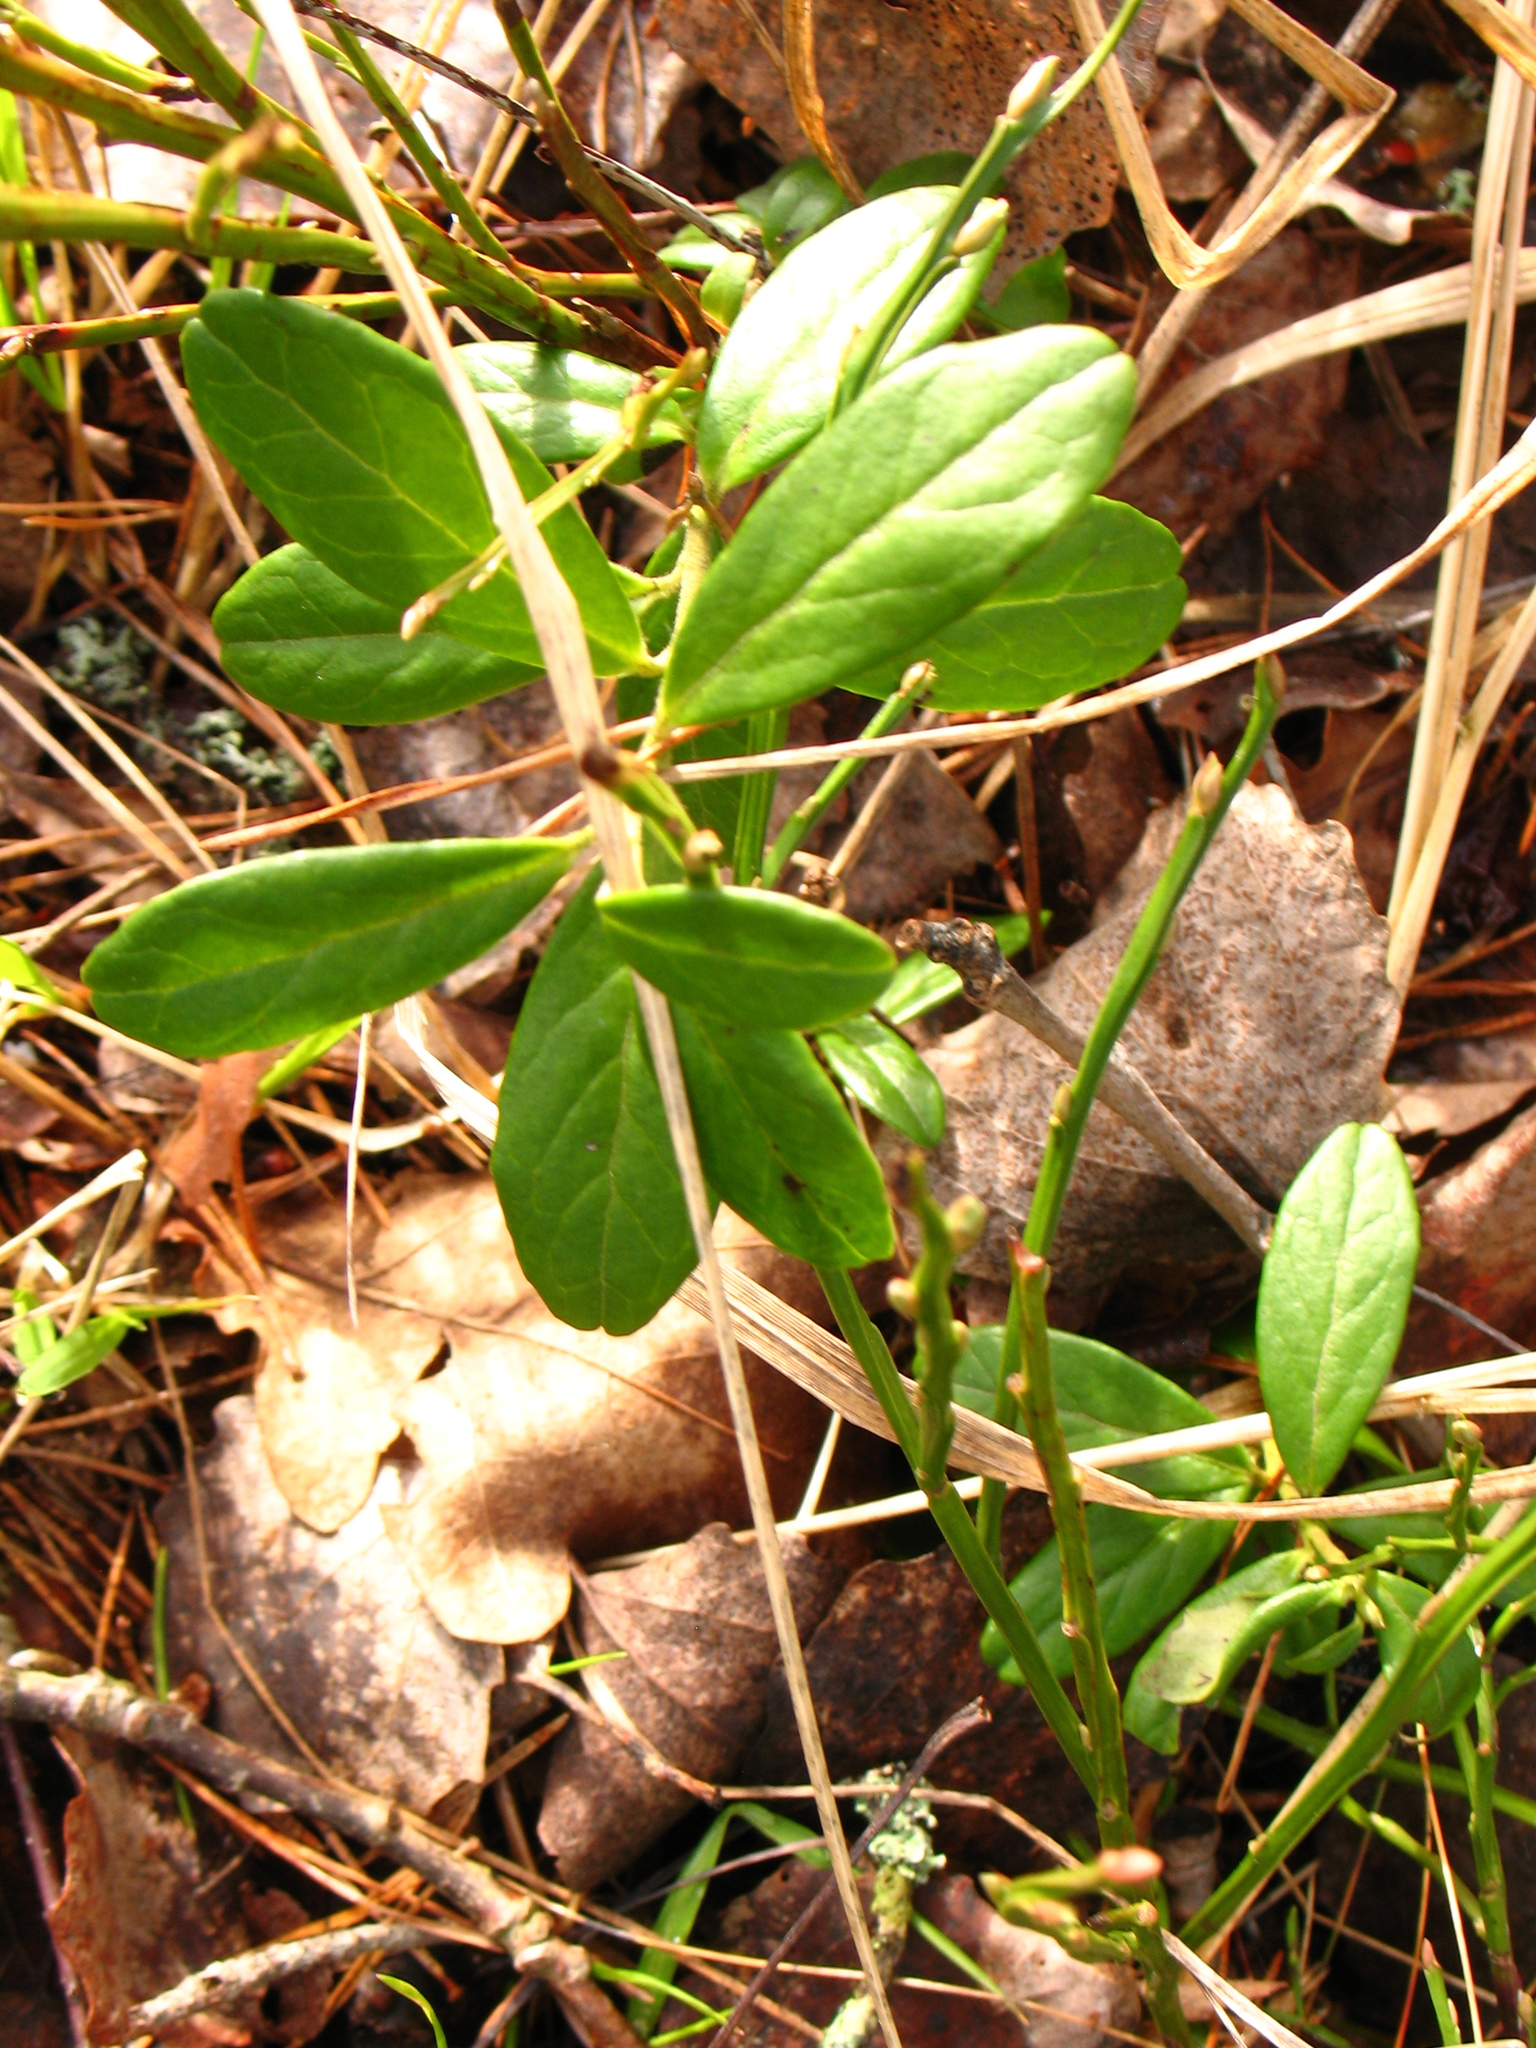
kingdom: Plantae
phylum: Tracheophyta
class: Magnoliopsida
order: Ericales
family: Ericaceae
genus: Vaccinium
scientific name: Vaccinium vitis-idaea
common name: Cowberry
